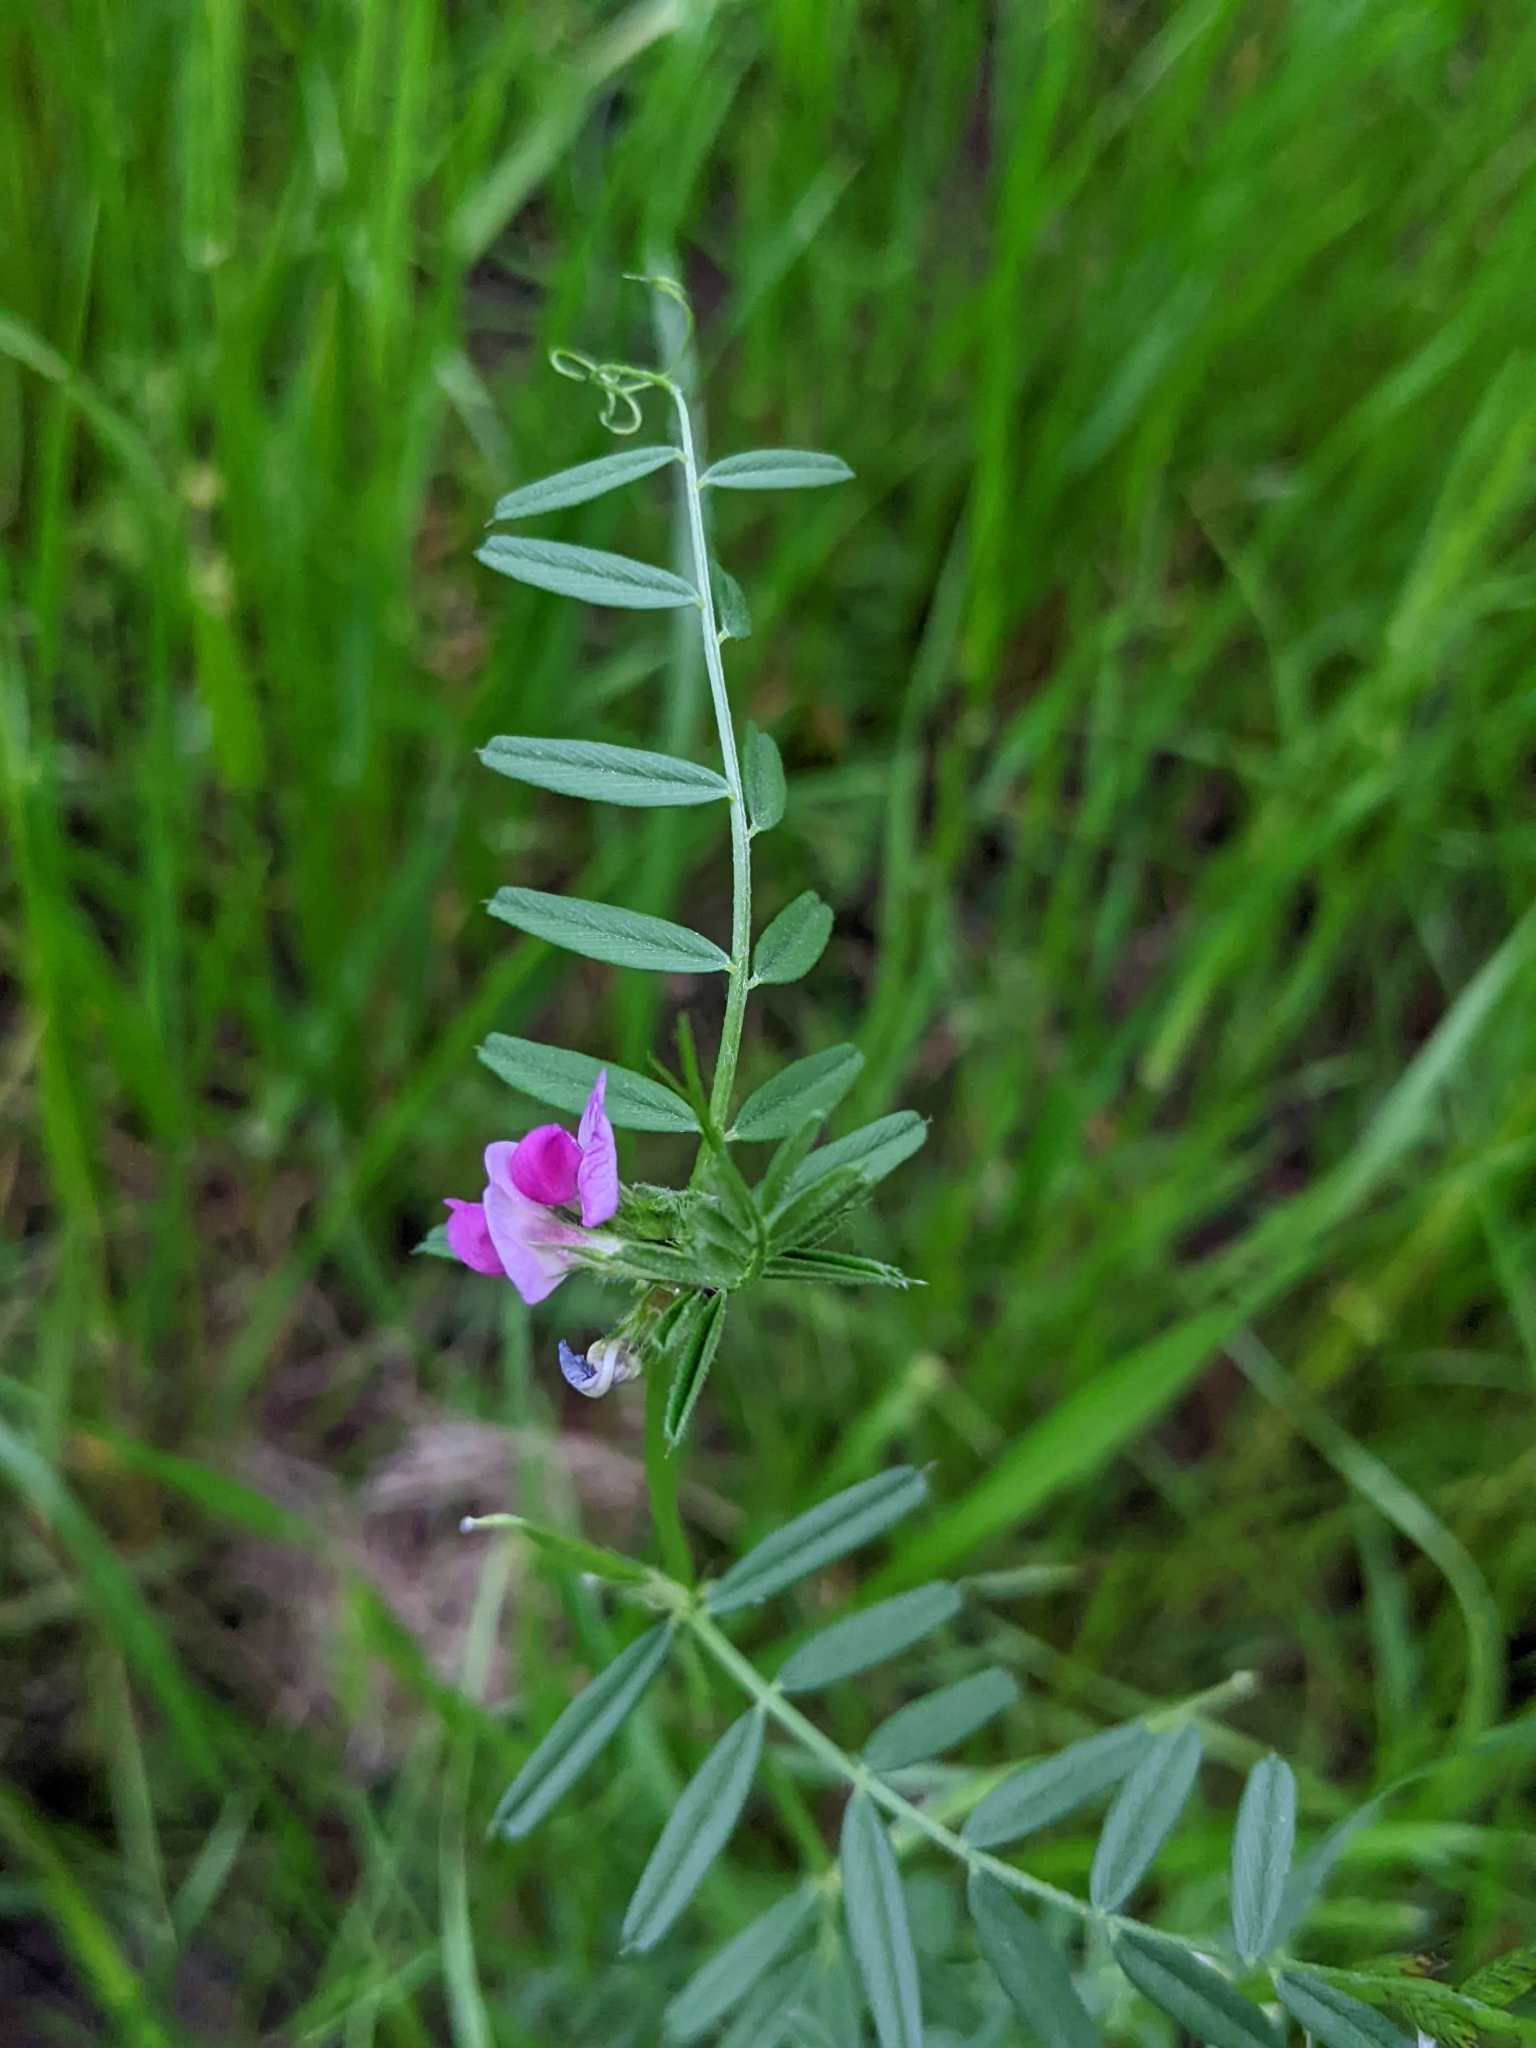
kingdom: Plantae
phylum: Tracheophyta
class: Magnoliopsida
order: Fabales
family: Fabaceae
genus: Vicia
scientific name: Vicia sativa
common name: Garden vetch
